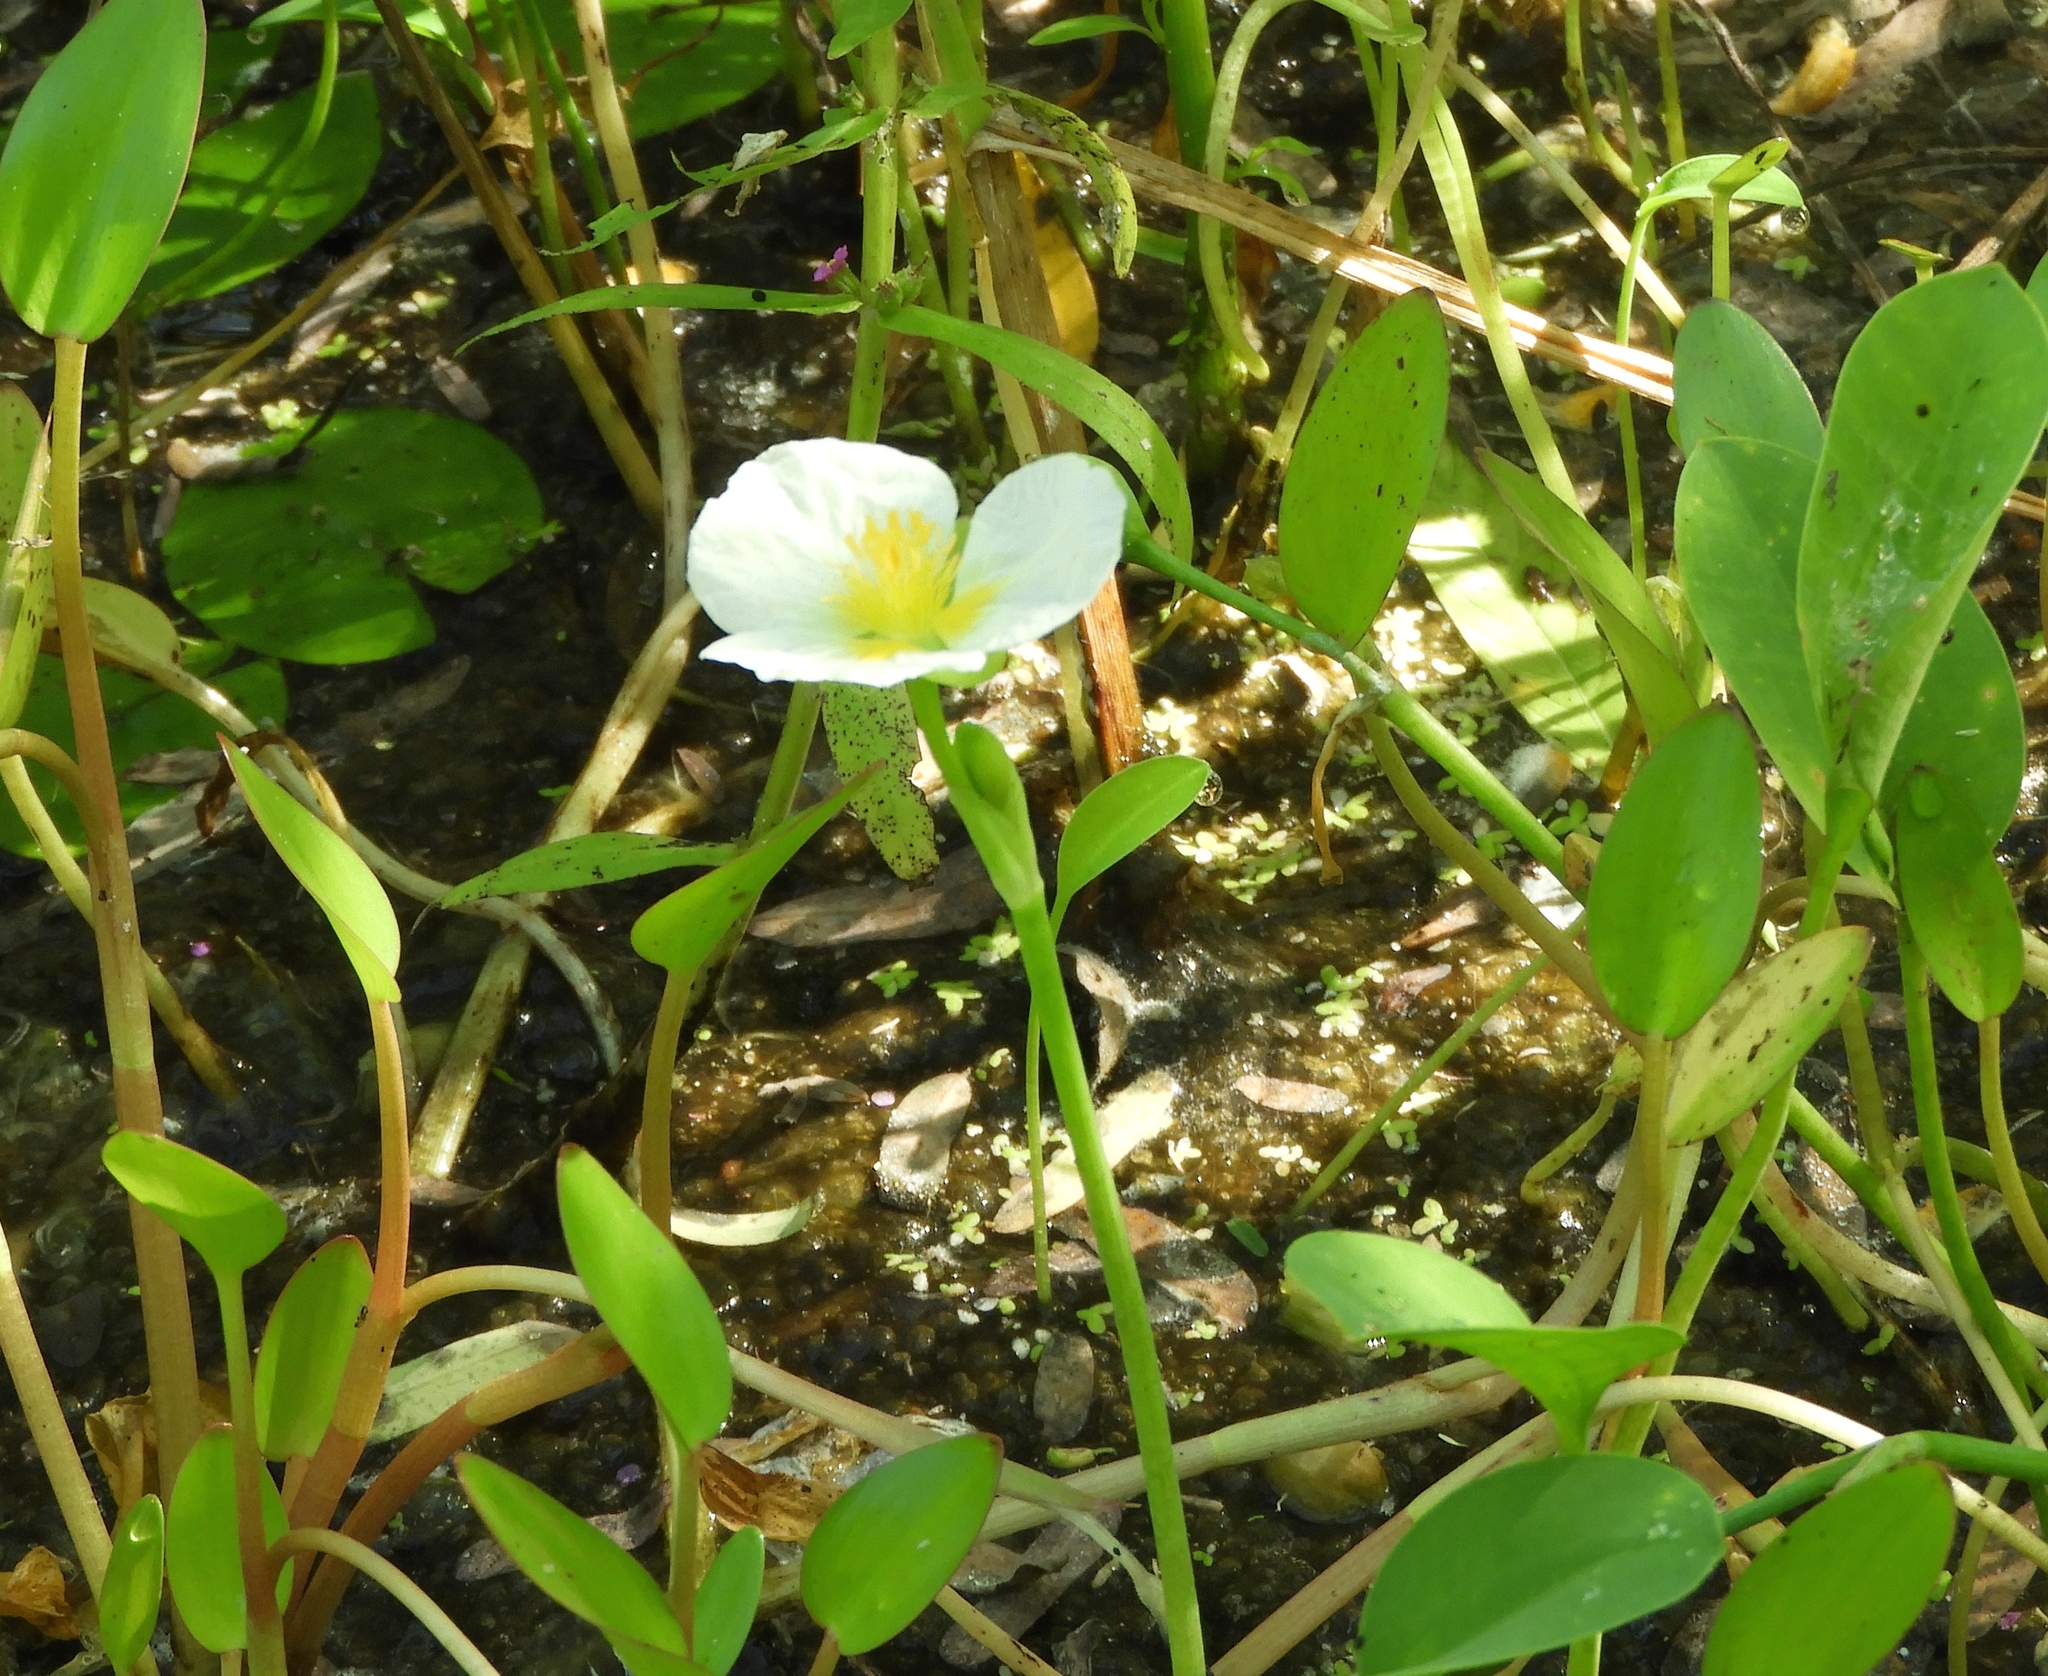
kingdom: Plantae
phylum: Tracheophyta
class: Liliopsida
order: Alismatales
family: Alismataceae
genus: Limnocharis
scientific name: Limnocharis flava
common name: Sawah-flower-rush
